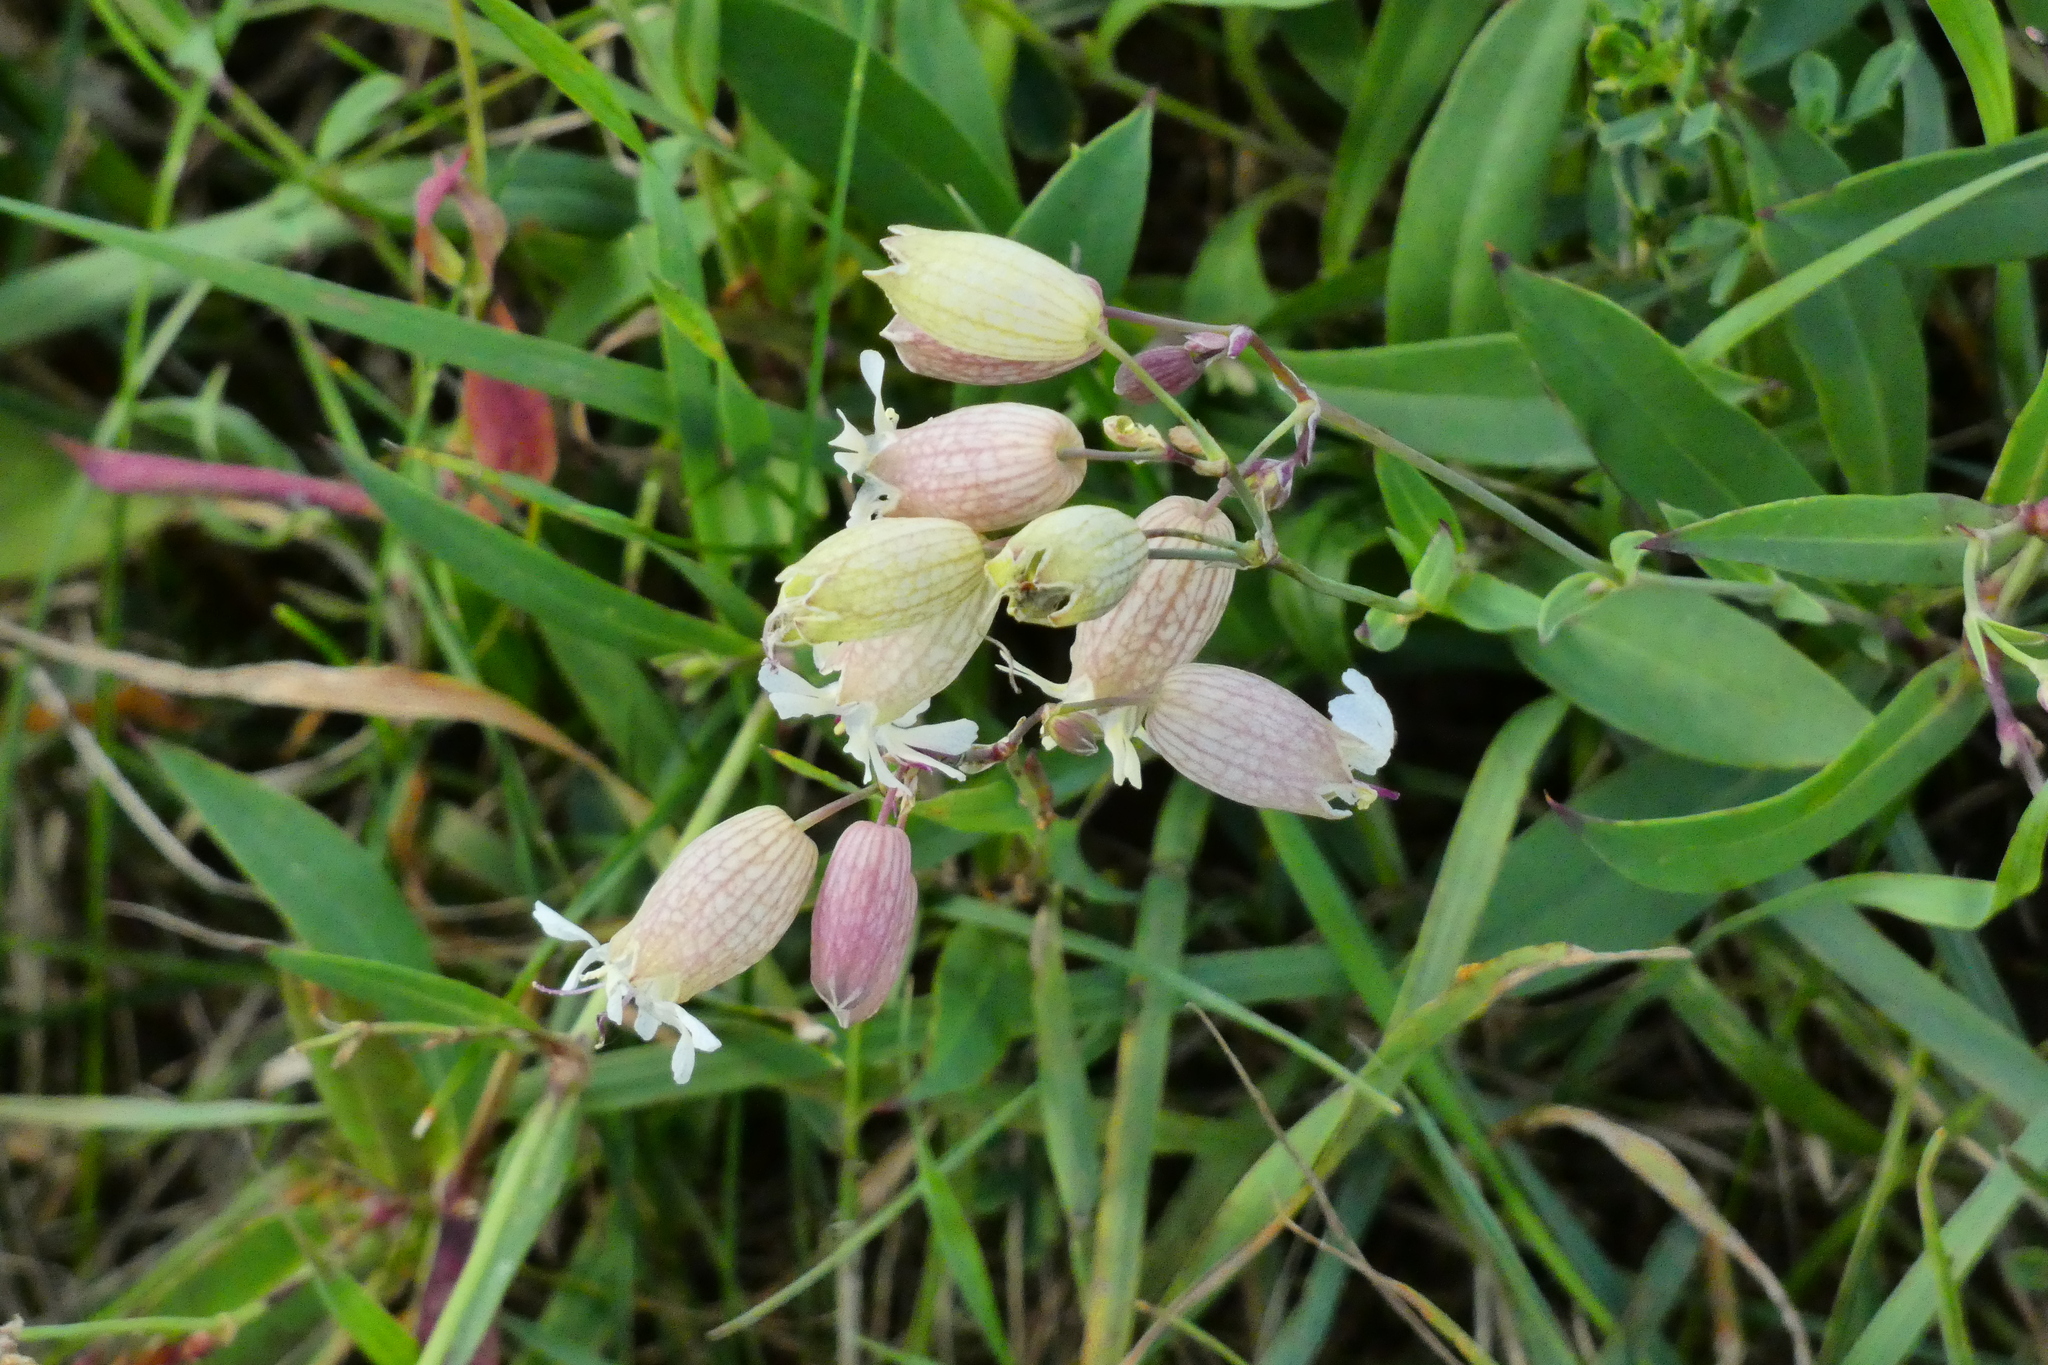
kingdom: Plantae
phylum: Tracheophyta
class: Magnoliopsida
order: Caryophyllales
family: Caryophyllaceae
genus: Silene
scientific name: Silene vulgaris
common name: Bladder campion
